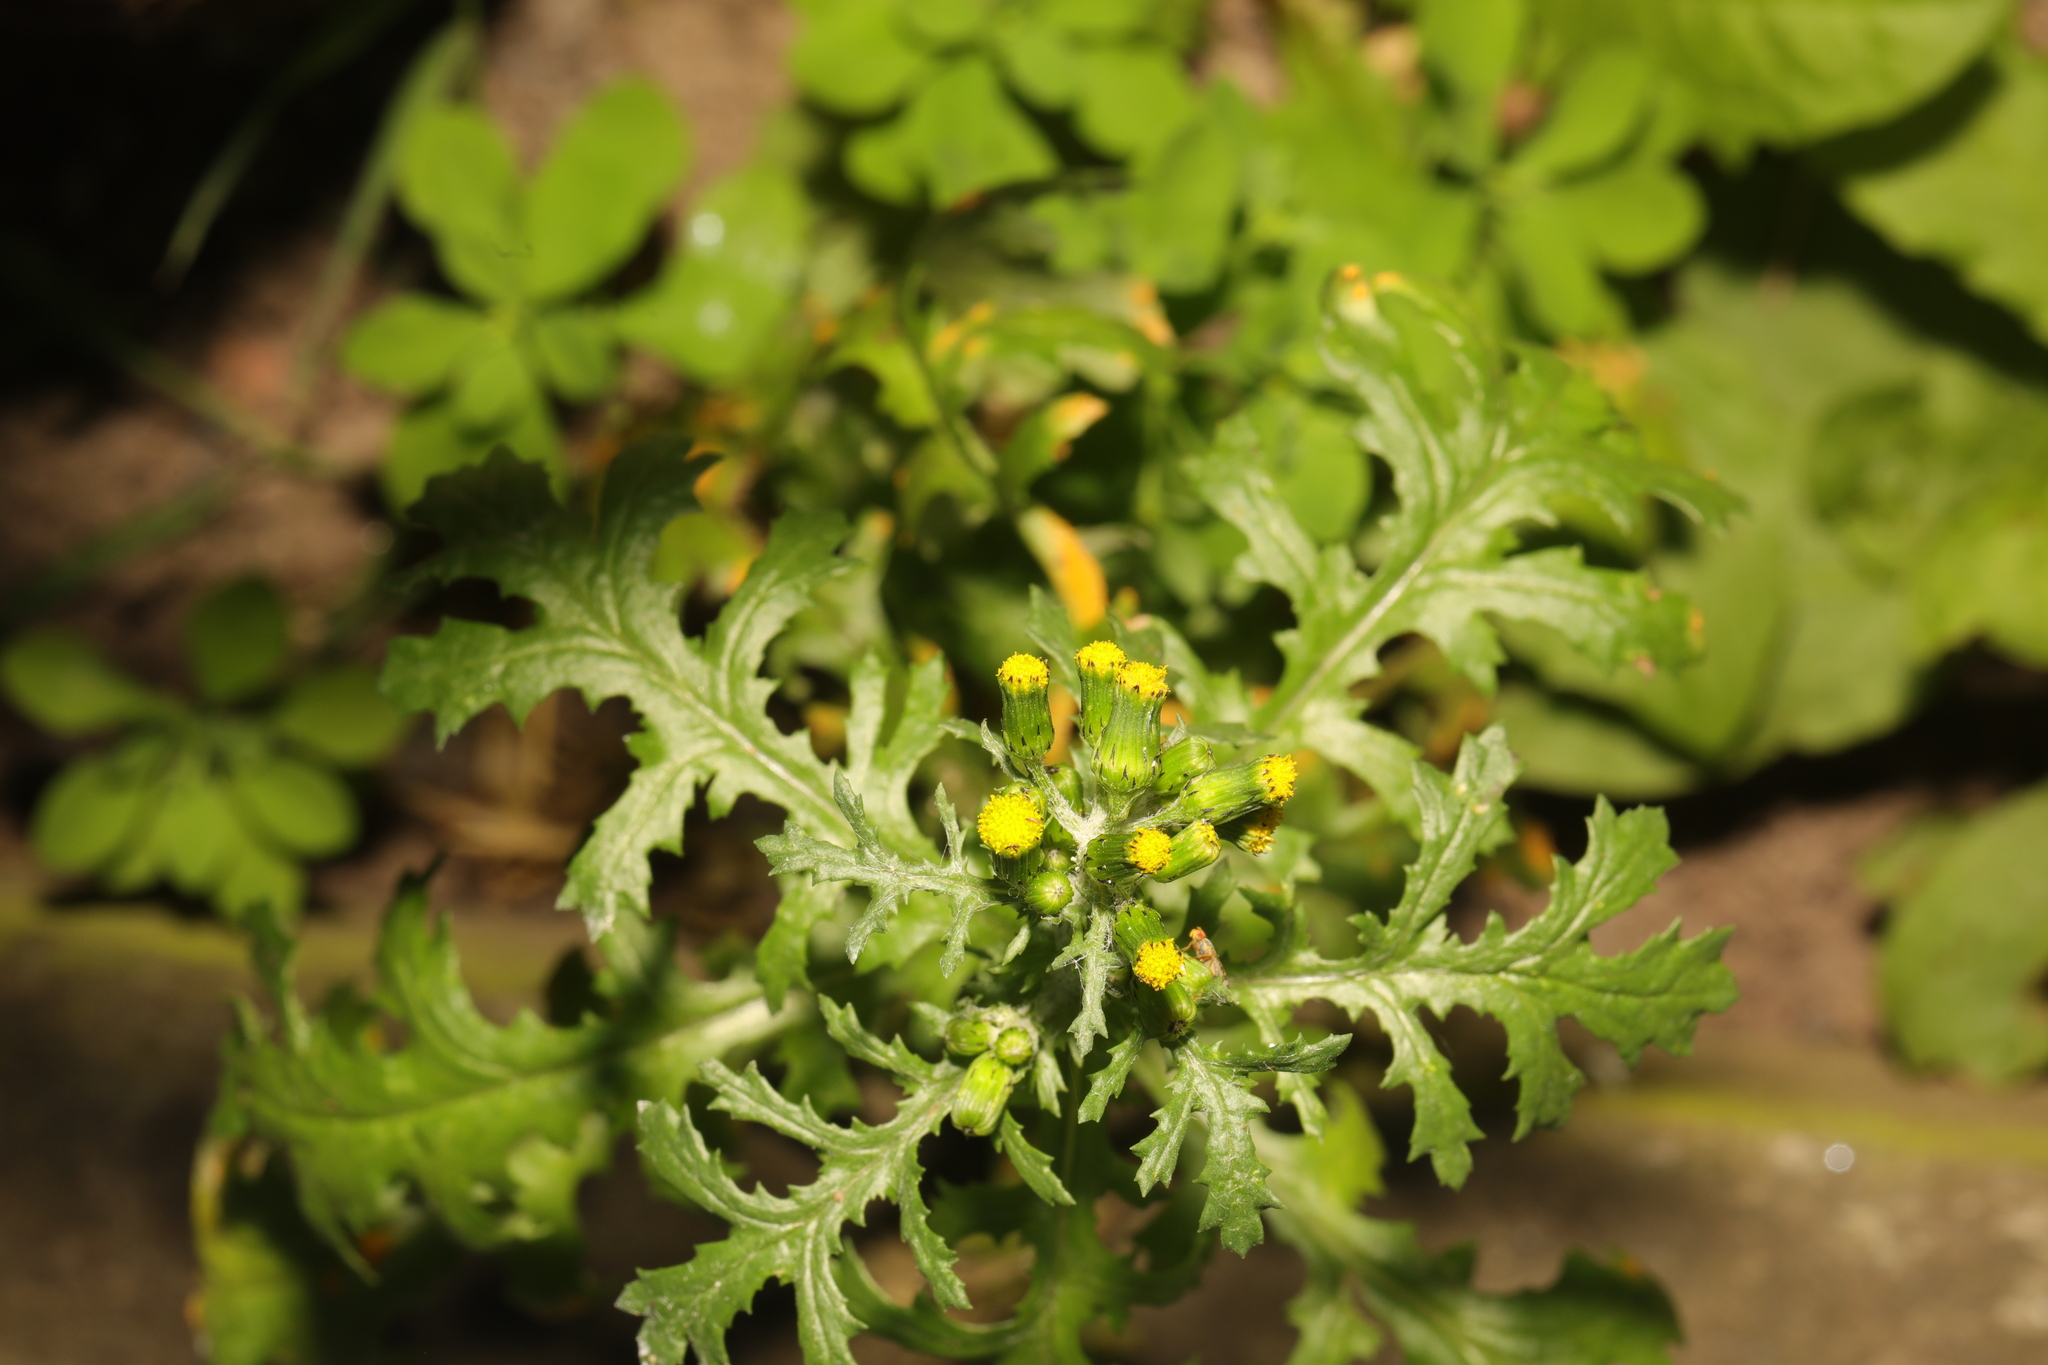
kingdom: Plantae
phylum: Tracheophyta
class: Magnoliopsida
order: Asterales
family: Asteraceae
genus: Senecio
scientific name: Senecio vulgaris
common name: Old-man-in-the-spring
